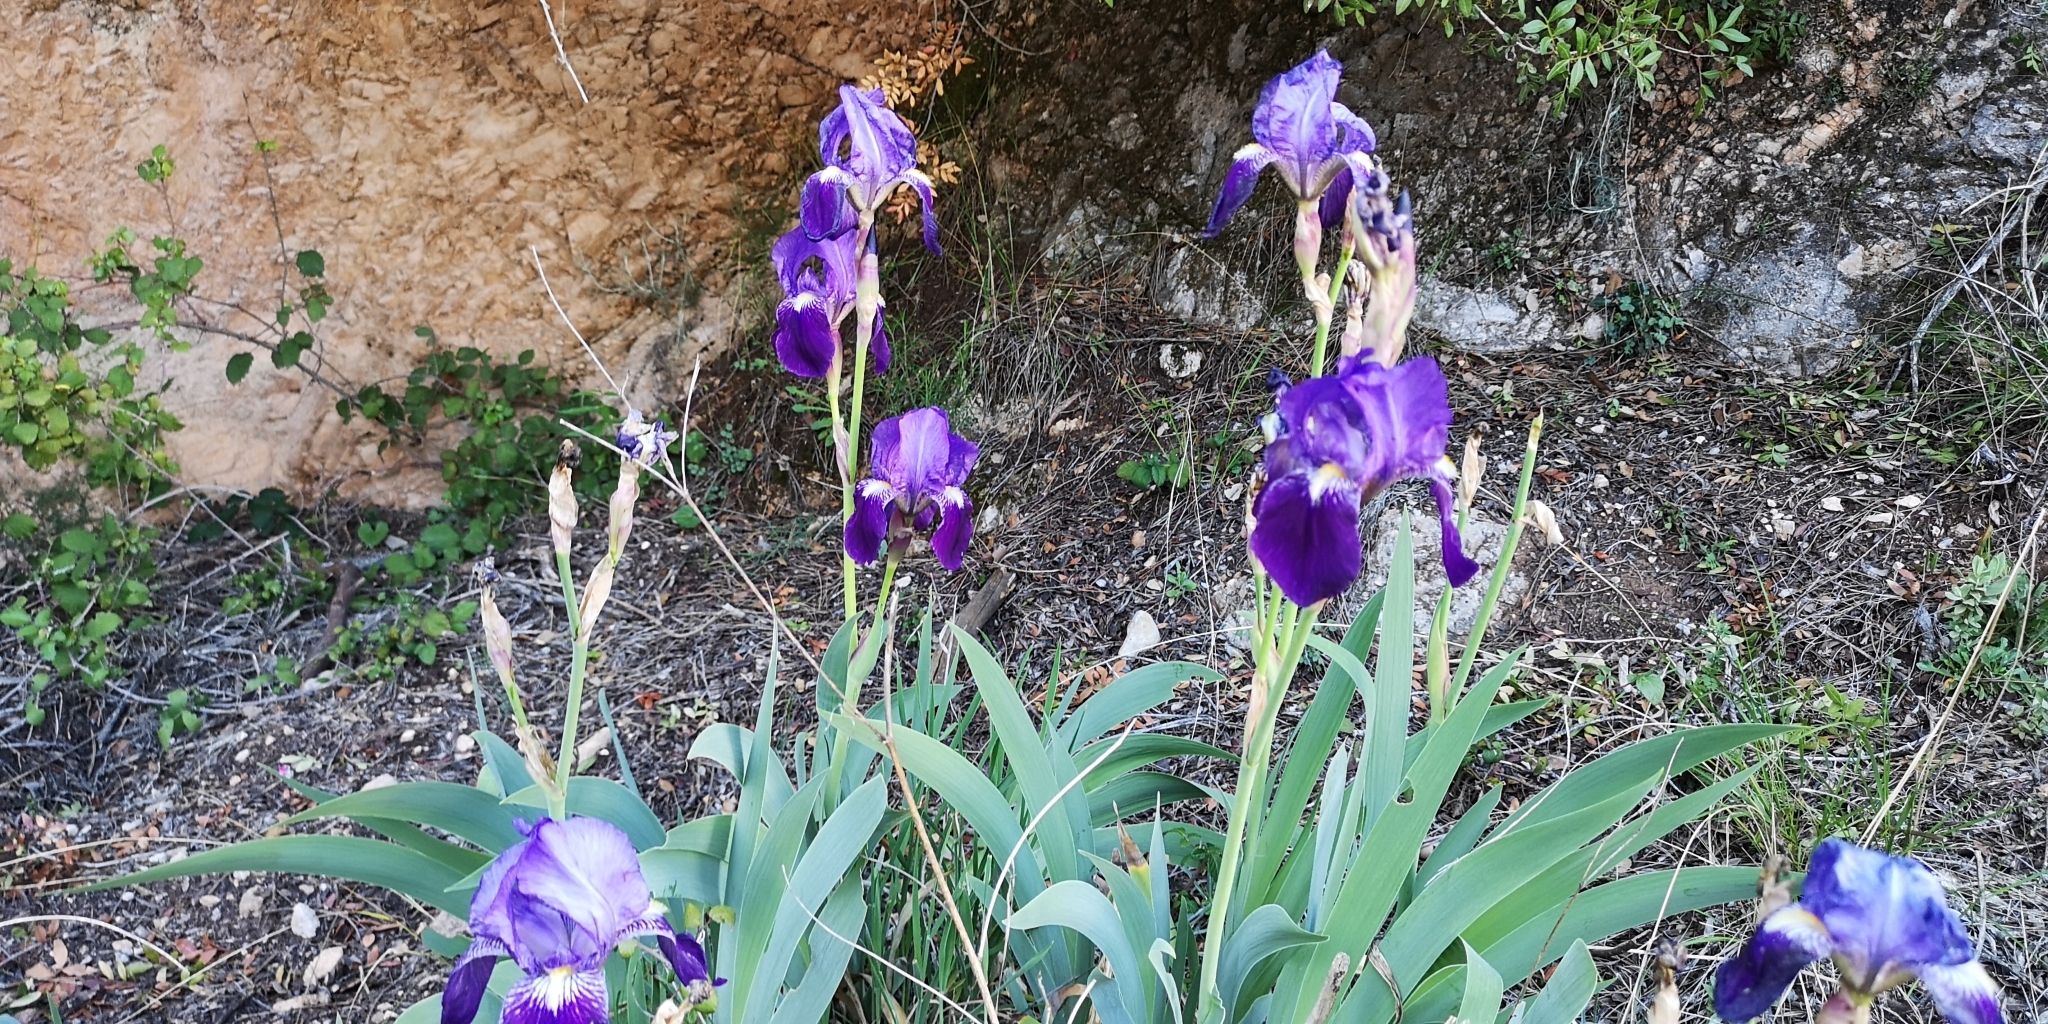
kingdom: Plantae
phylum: Tracheophyta
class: Liliopsida
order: Asparagales
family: Iridaceae
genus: Iris
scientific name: Iris germanica
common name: German iris
